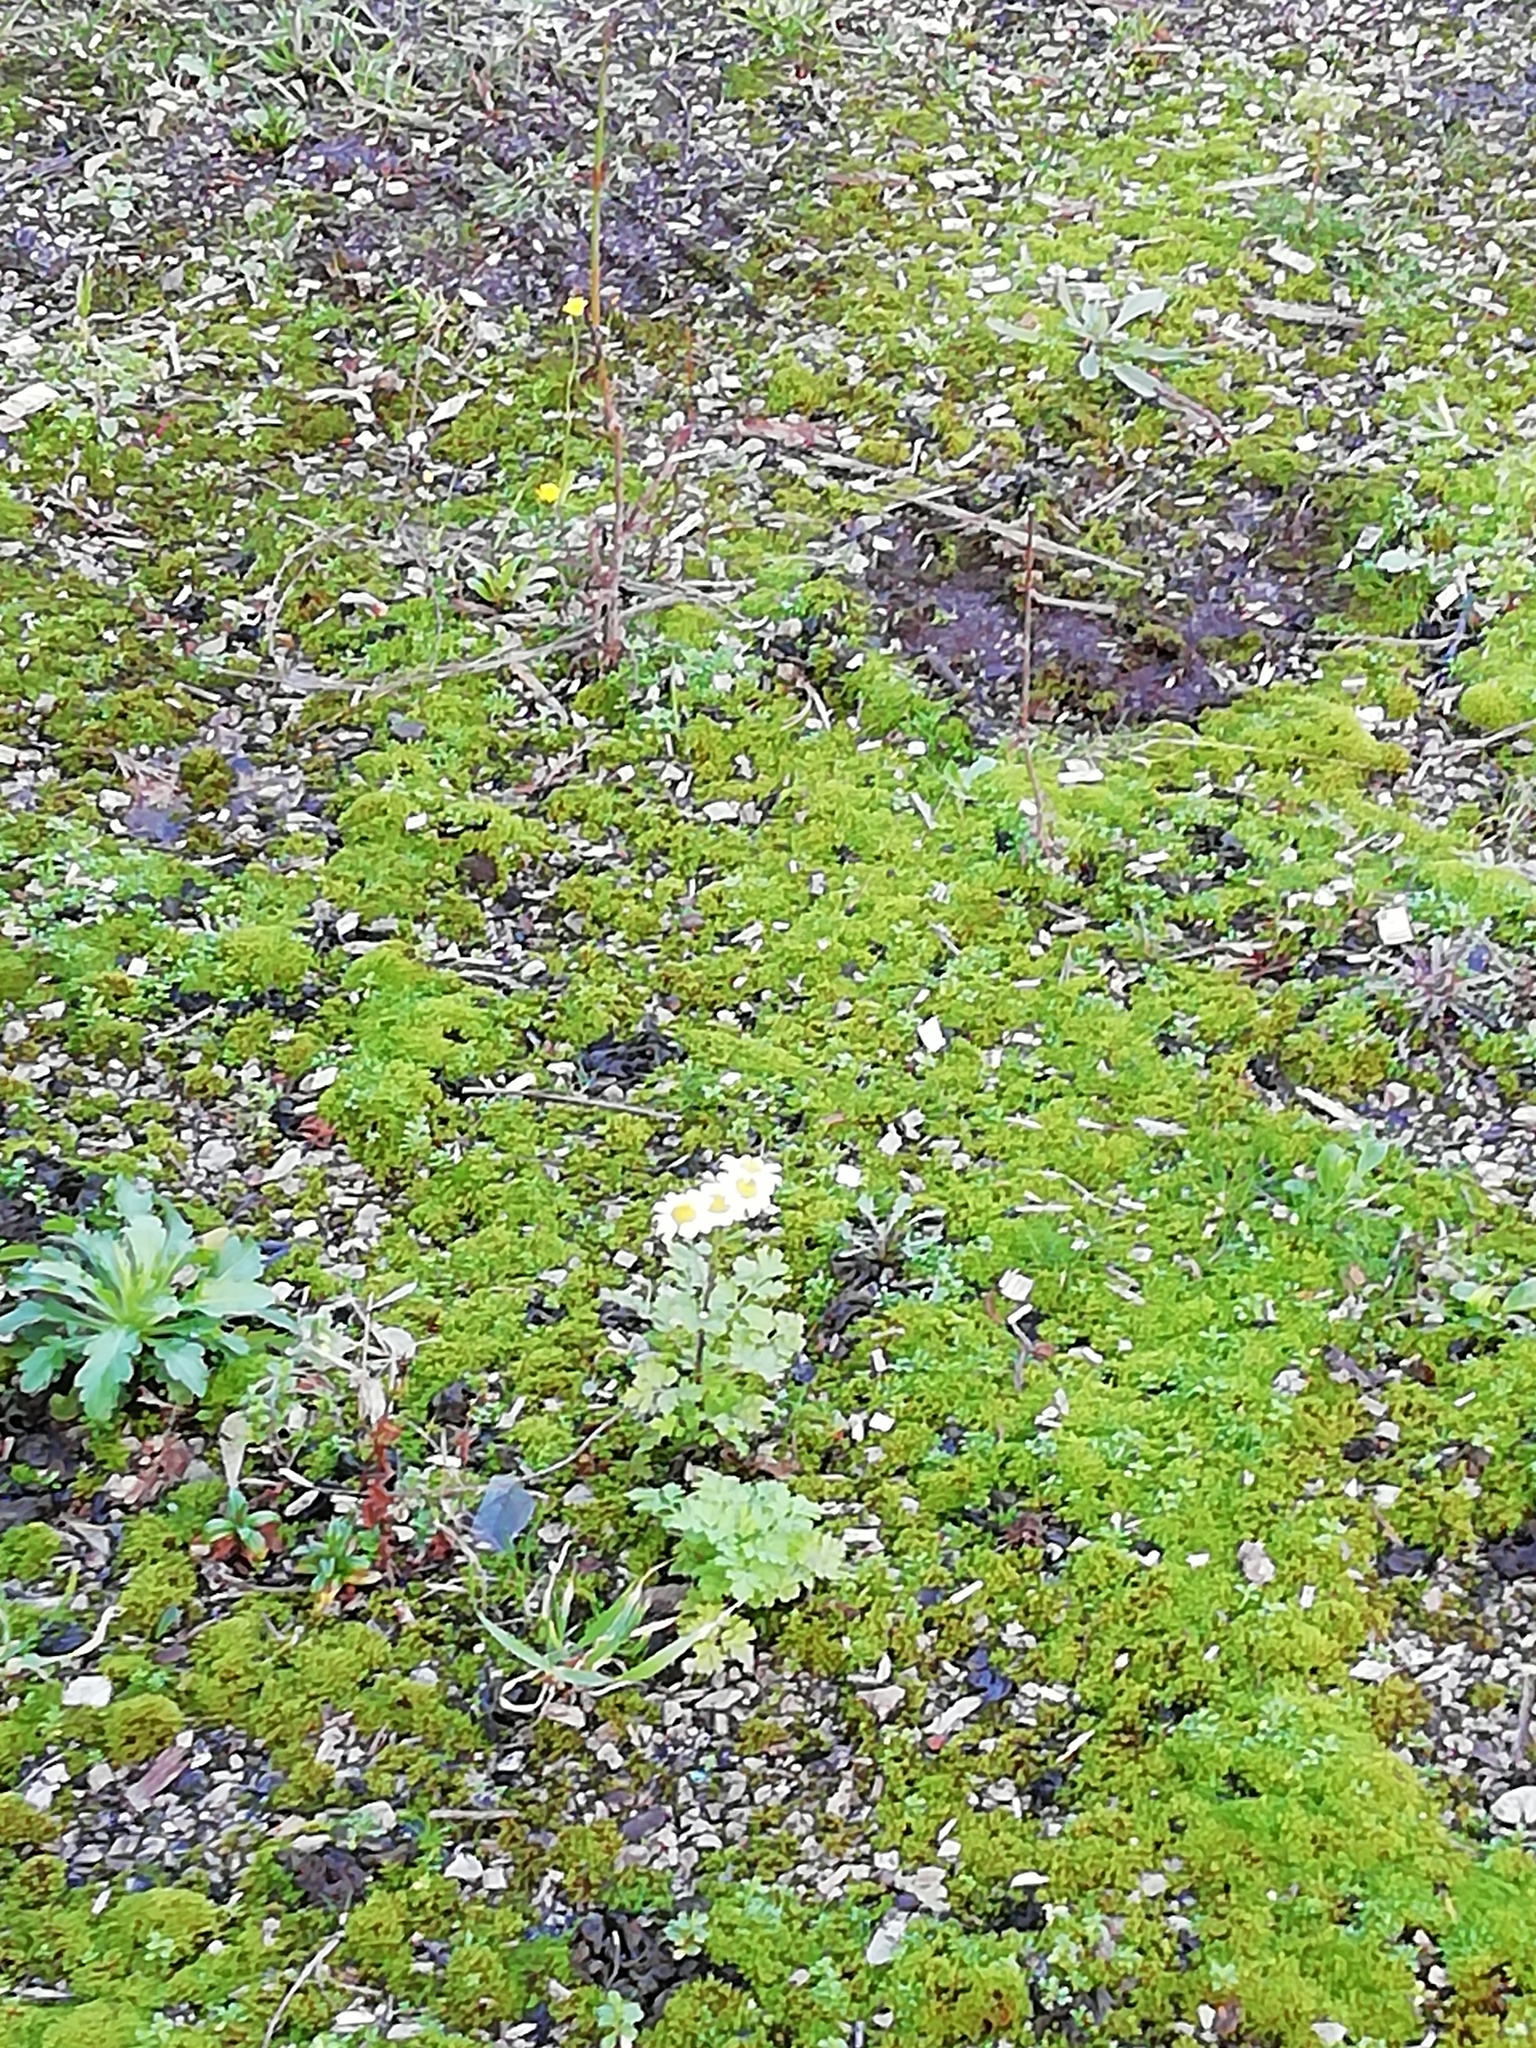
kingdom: Plantae
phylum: Tracheophyta
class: Magnoliopsida
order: Asterales
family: Asteraceae
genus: Tanacetum
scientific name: Tanacetum parthenium
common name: Feverfew
